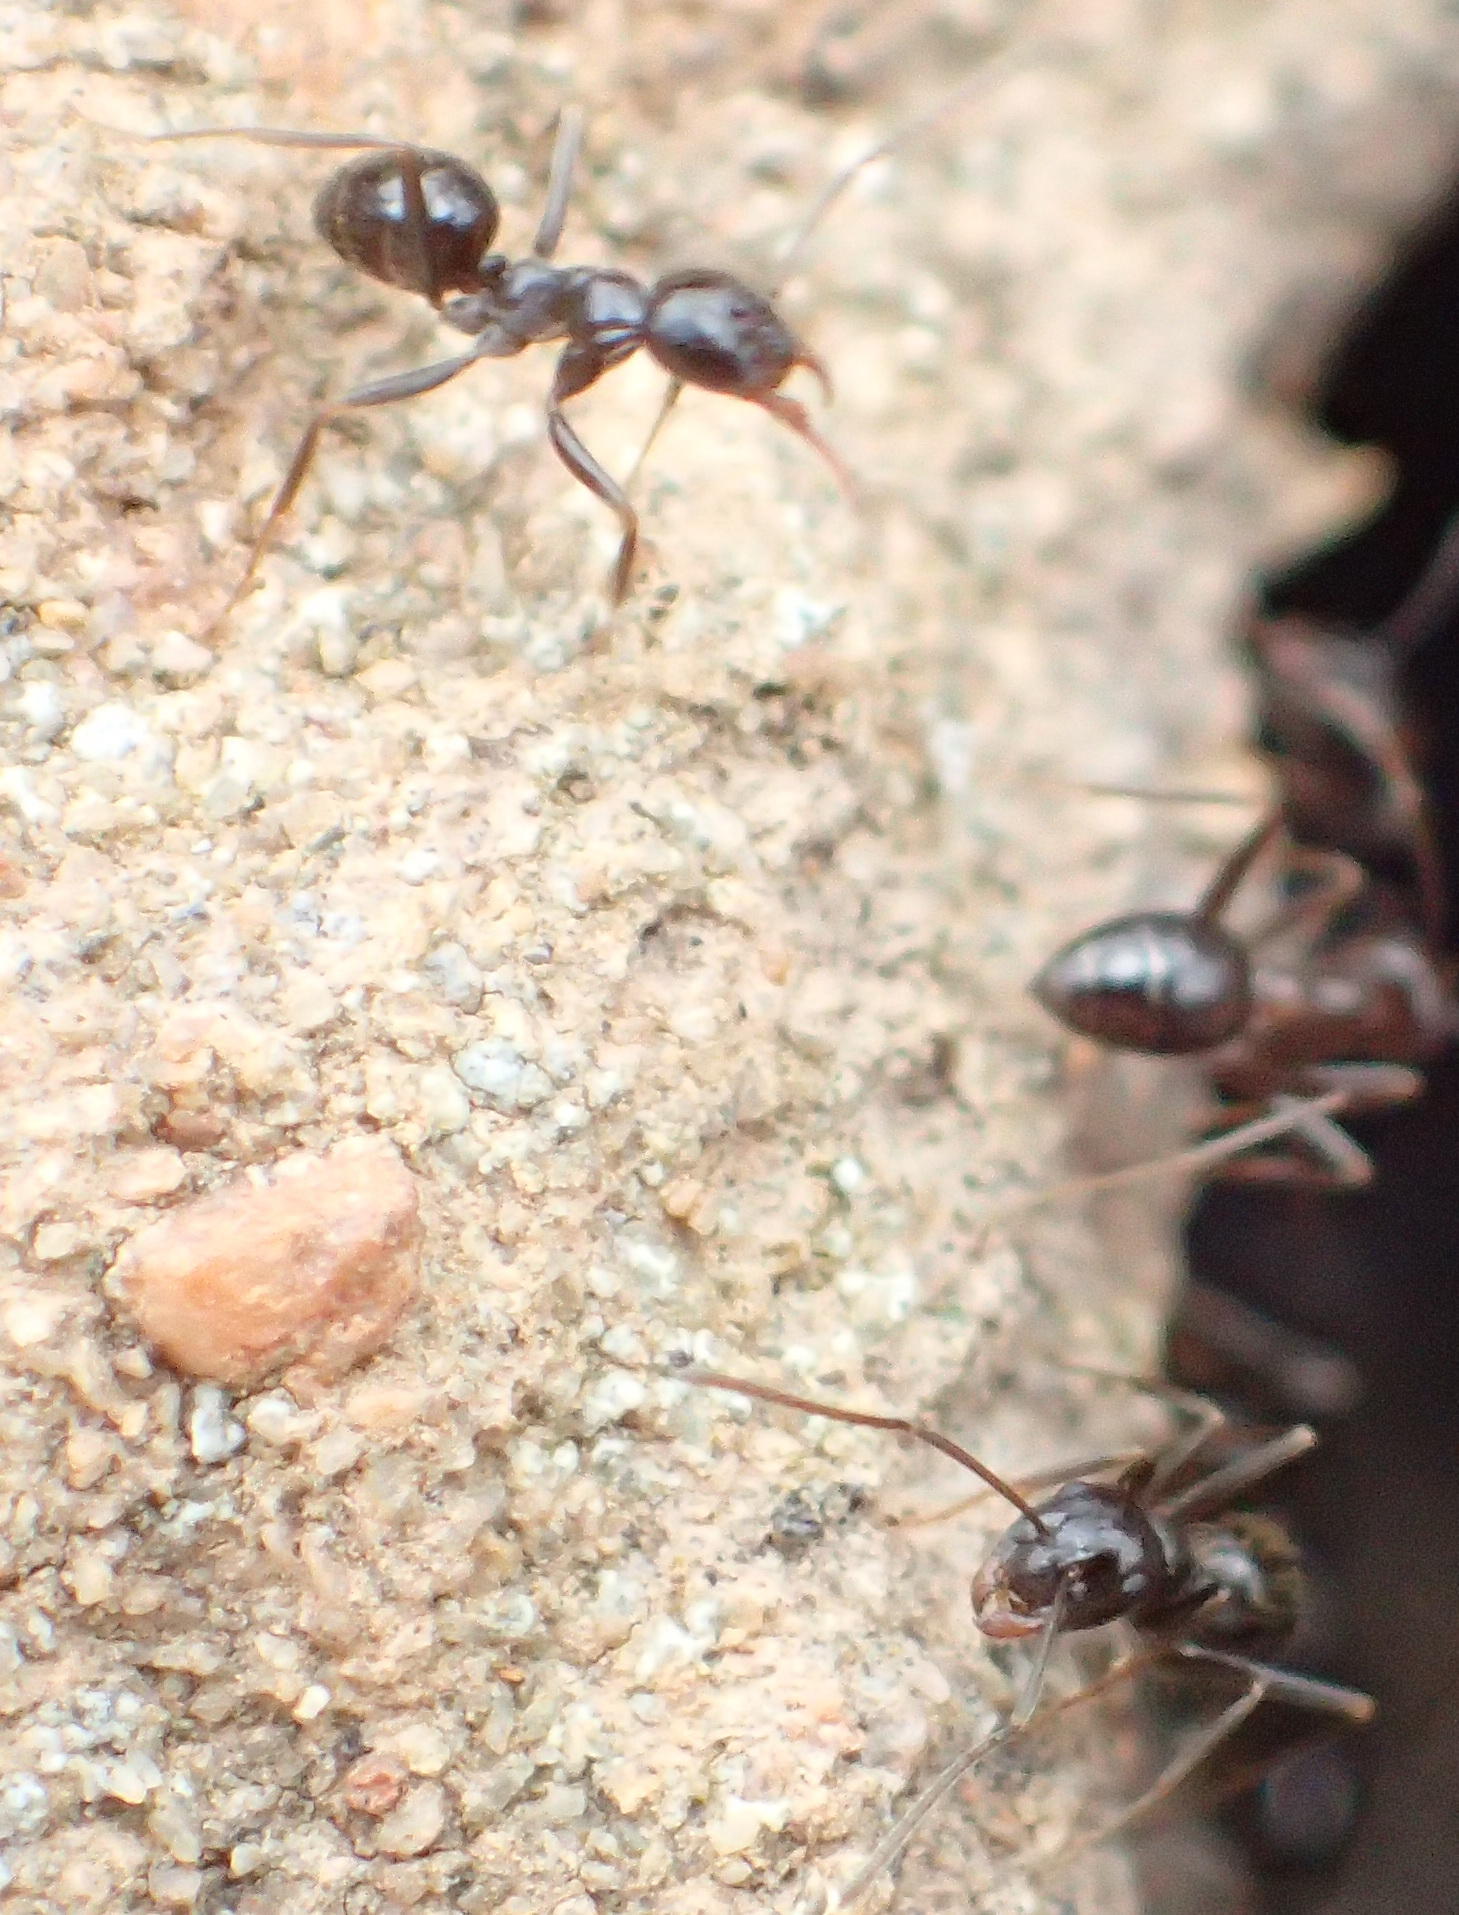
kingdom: Animalia
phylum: Arthropoda
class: Insecta
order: Hymenoptera
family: Formicidae
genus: Anoplolepis
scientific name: Anoplolepis steingroeveri
